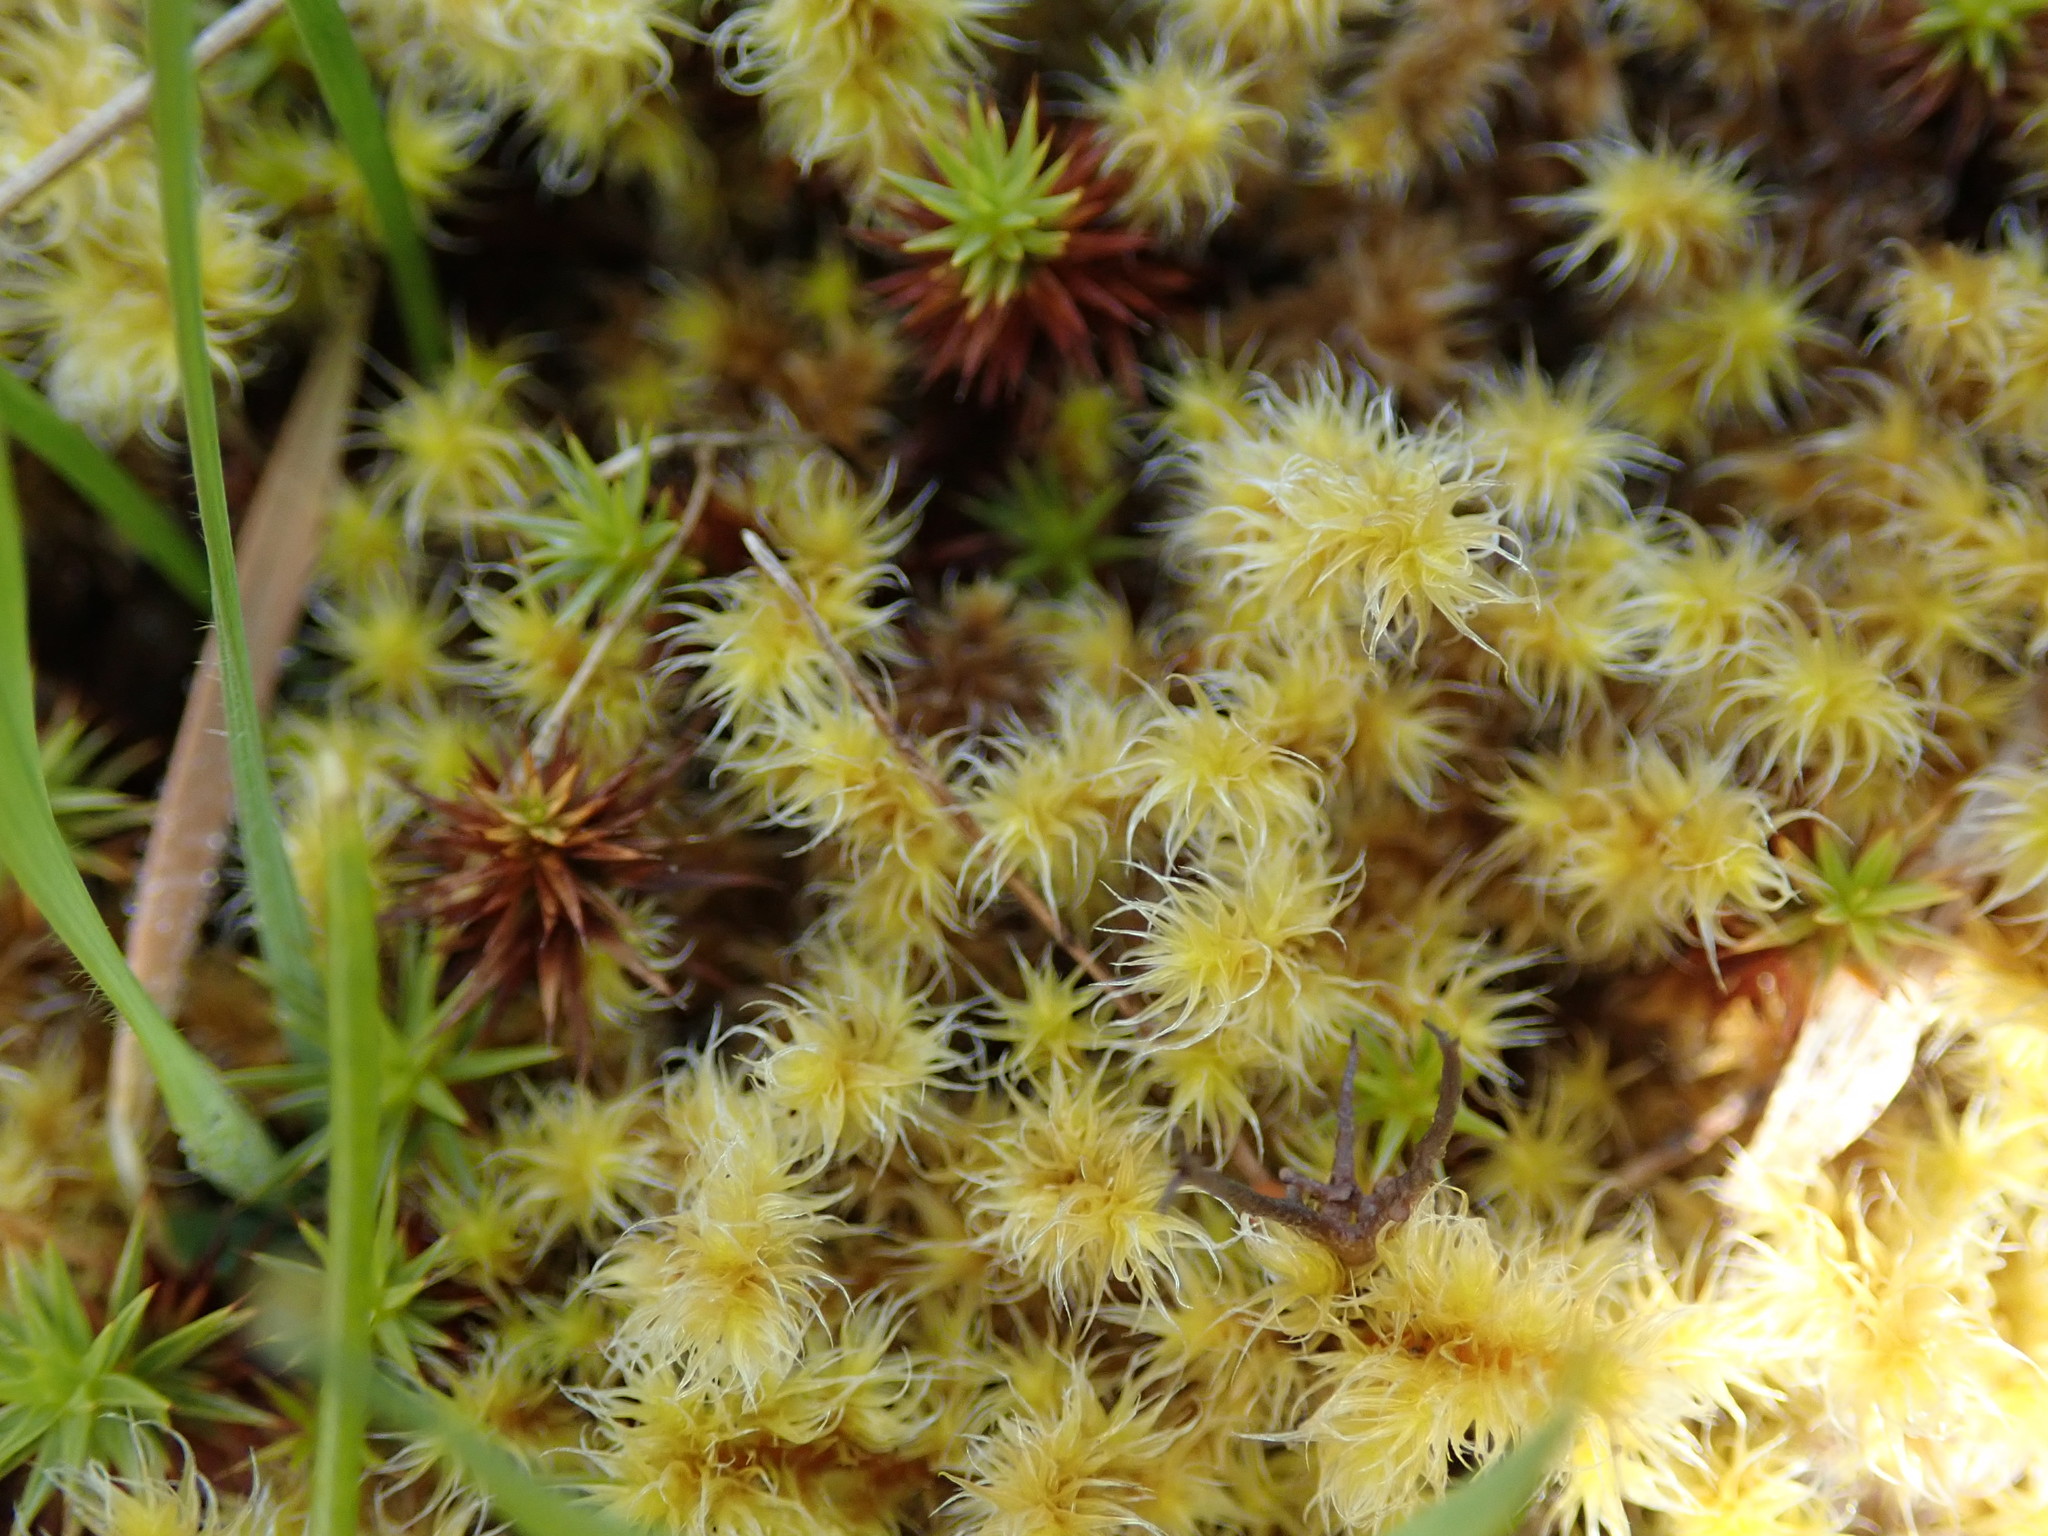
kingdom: Plantae
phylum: Bryophyta
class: Bryopsida
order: Grimmiales
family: Grimmiaceae
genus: Niphotrichum
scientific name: Niphotrichum elongatum
